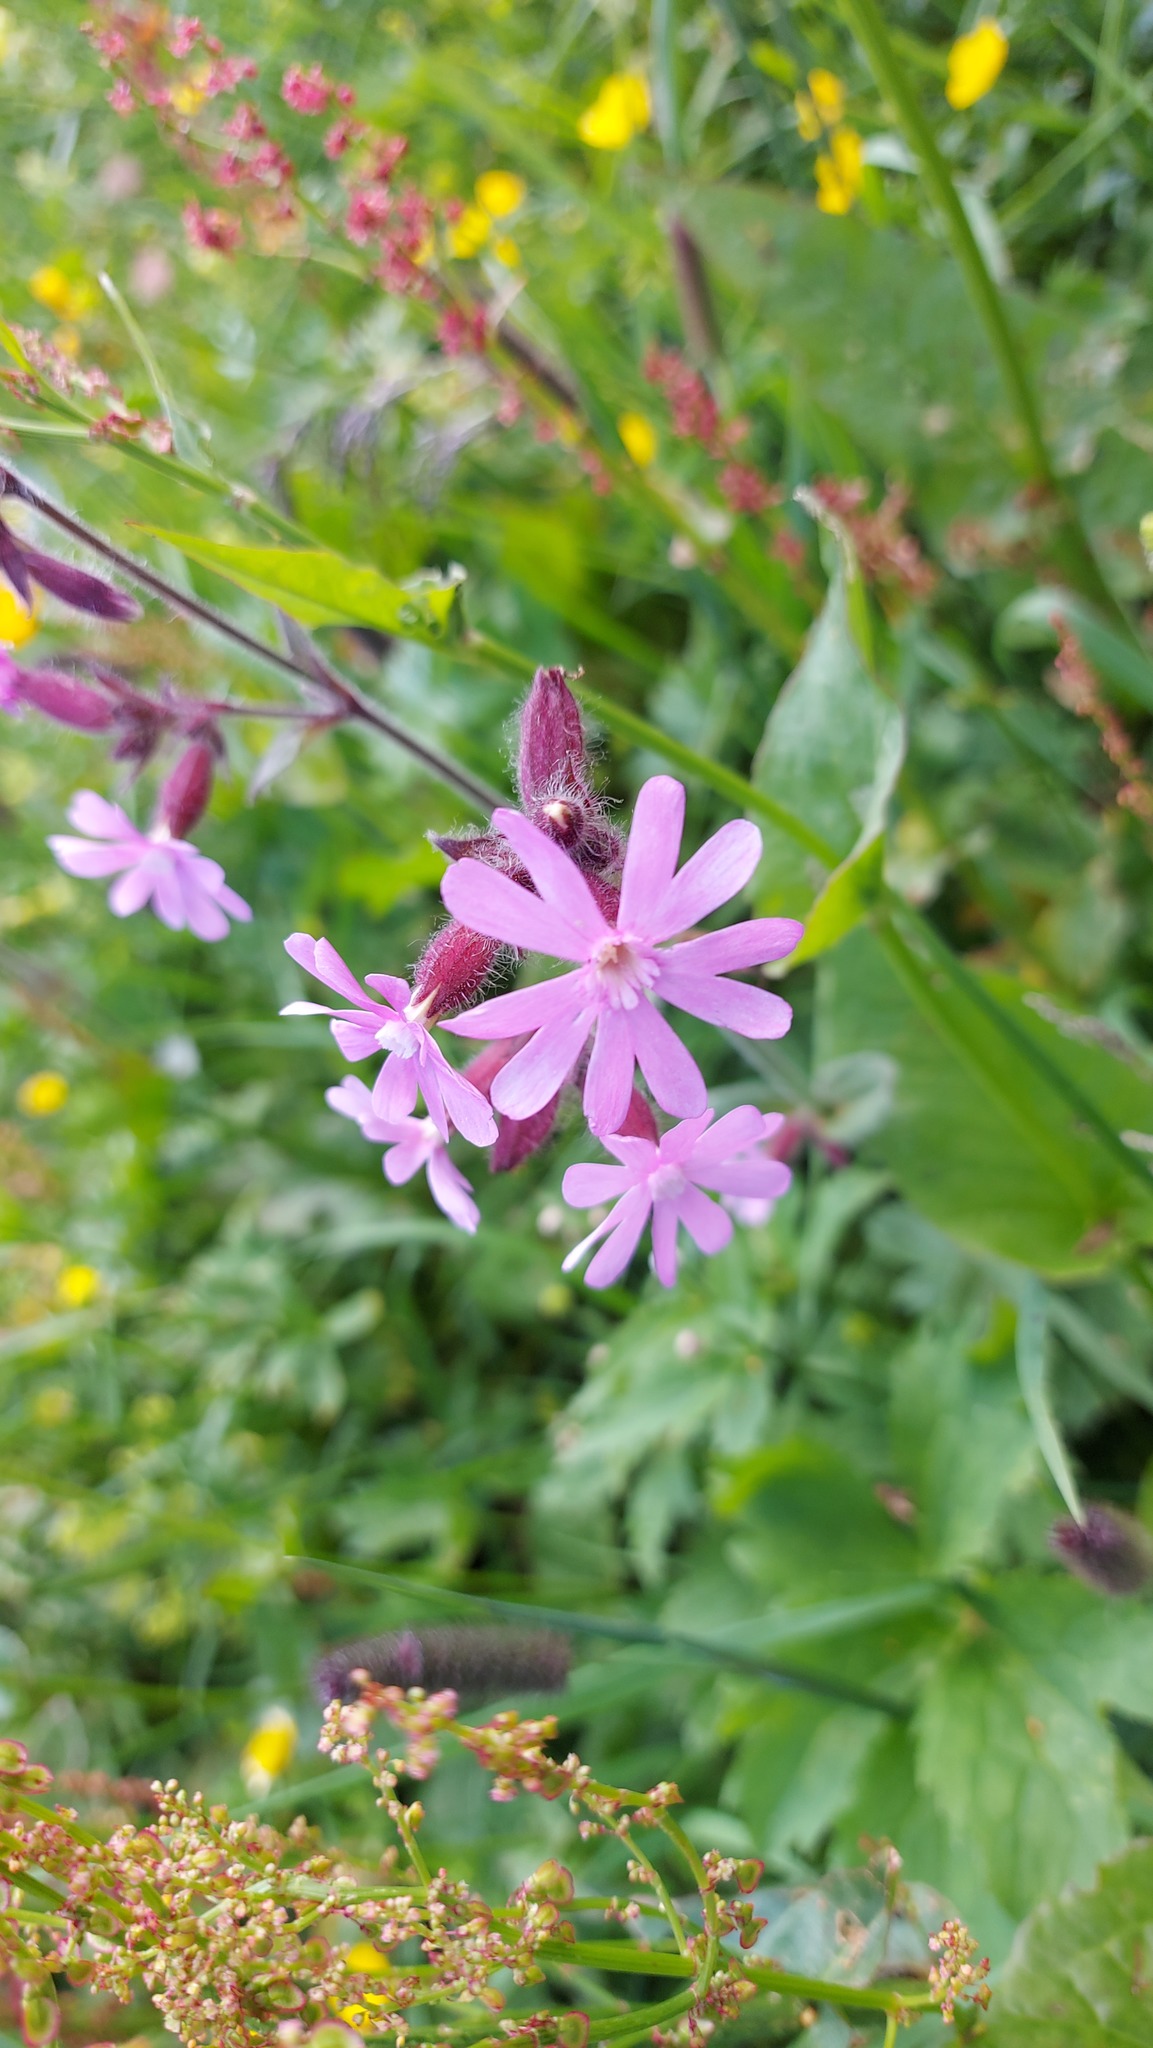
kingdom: Plantae
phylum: Tracheophyta
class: Magnoliopsida
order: Caryophyllales
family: Caryophyllaceae
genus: Silene
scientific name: Silene dioica
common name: Red campion
